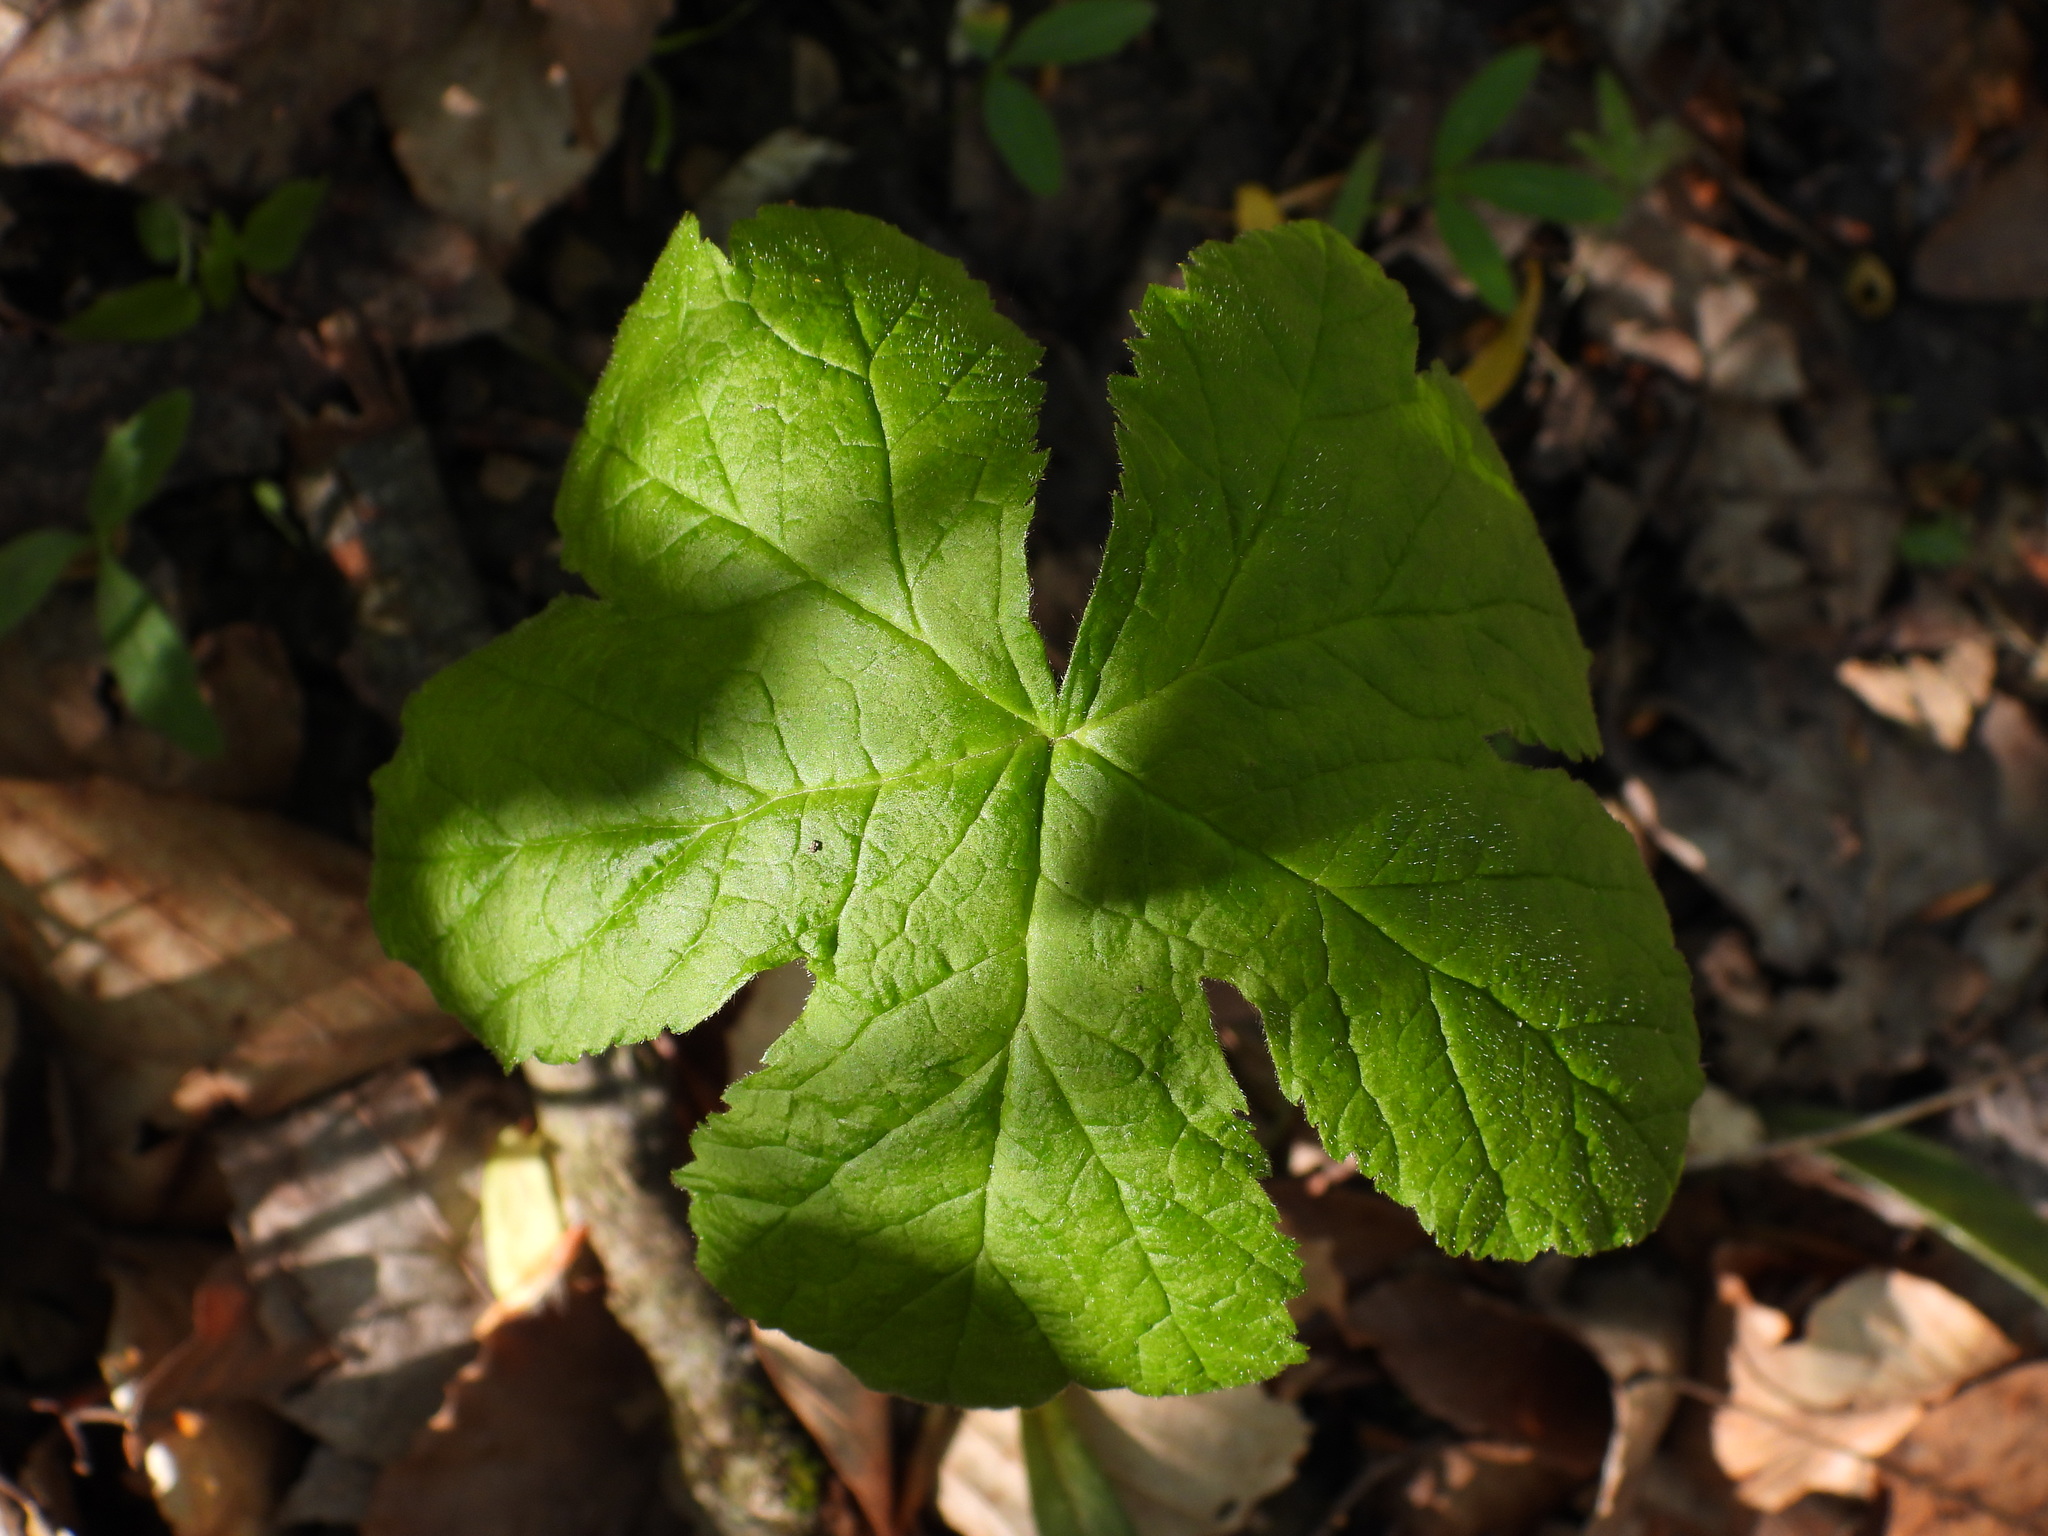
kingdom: Plantae
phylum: Tracheophyta
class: Magnoliopsida
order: Ranunculales
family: Ranunculaceae
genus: Hydrastis
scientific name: Hydrastis canadensis
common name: Goldenseal
